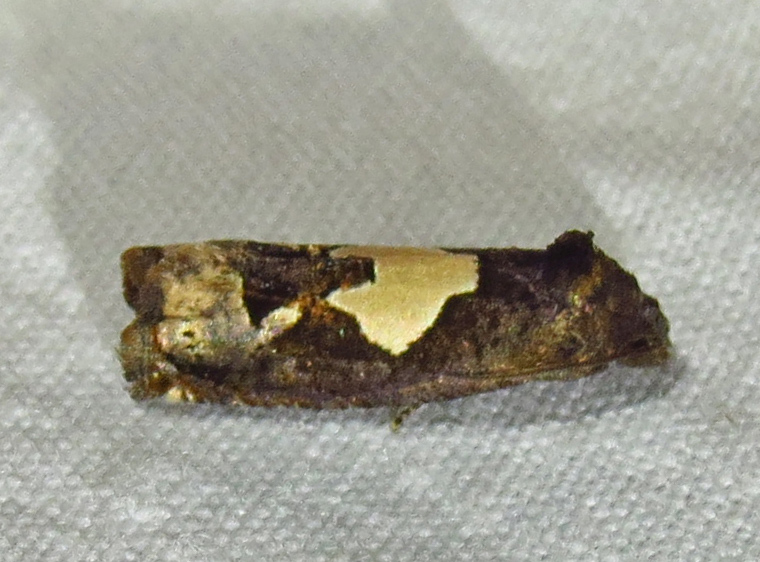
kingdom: Animalia
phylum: Arthropoda
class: Insecta
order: Lepidoptera
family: Tortricidae
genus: Epiblema
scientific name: Epiblema otiosana
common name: Bidens borer moth
